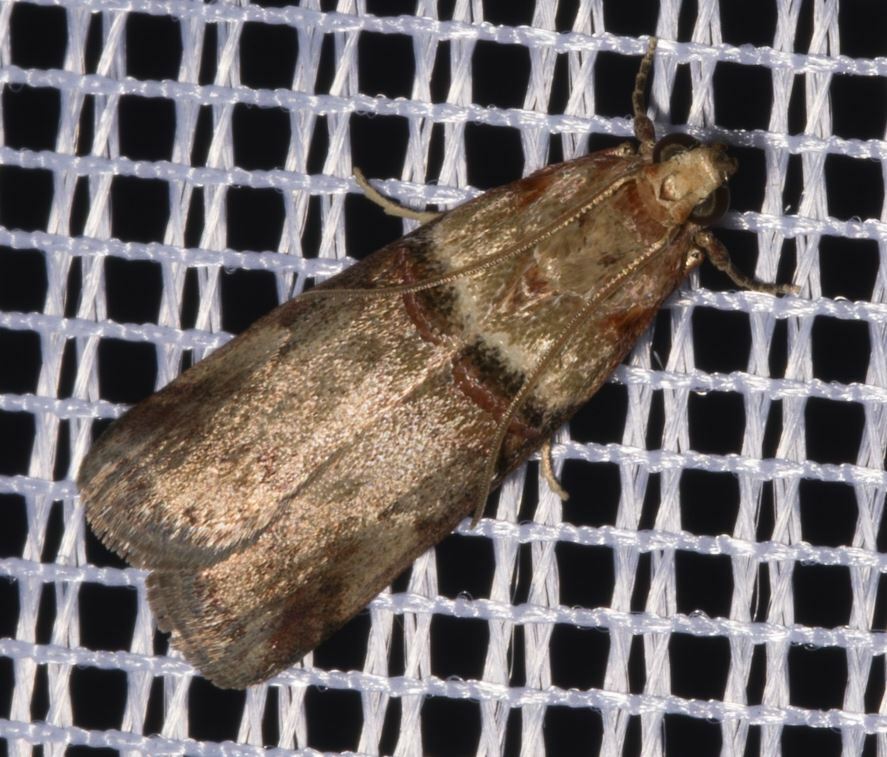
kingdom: Animalia
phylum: Arthropoda
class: Insecta
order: Lepidoptera
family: Pyralidae
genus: Acrobasis
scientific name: Acrobasis tumidana
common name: Scarce oak knot-horn
